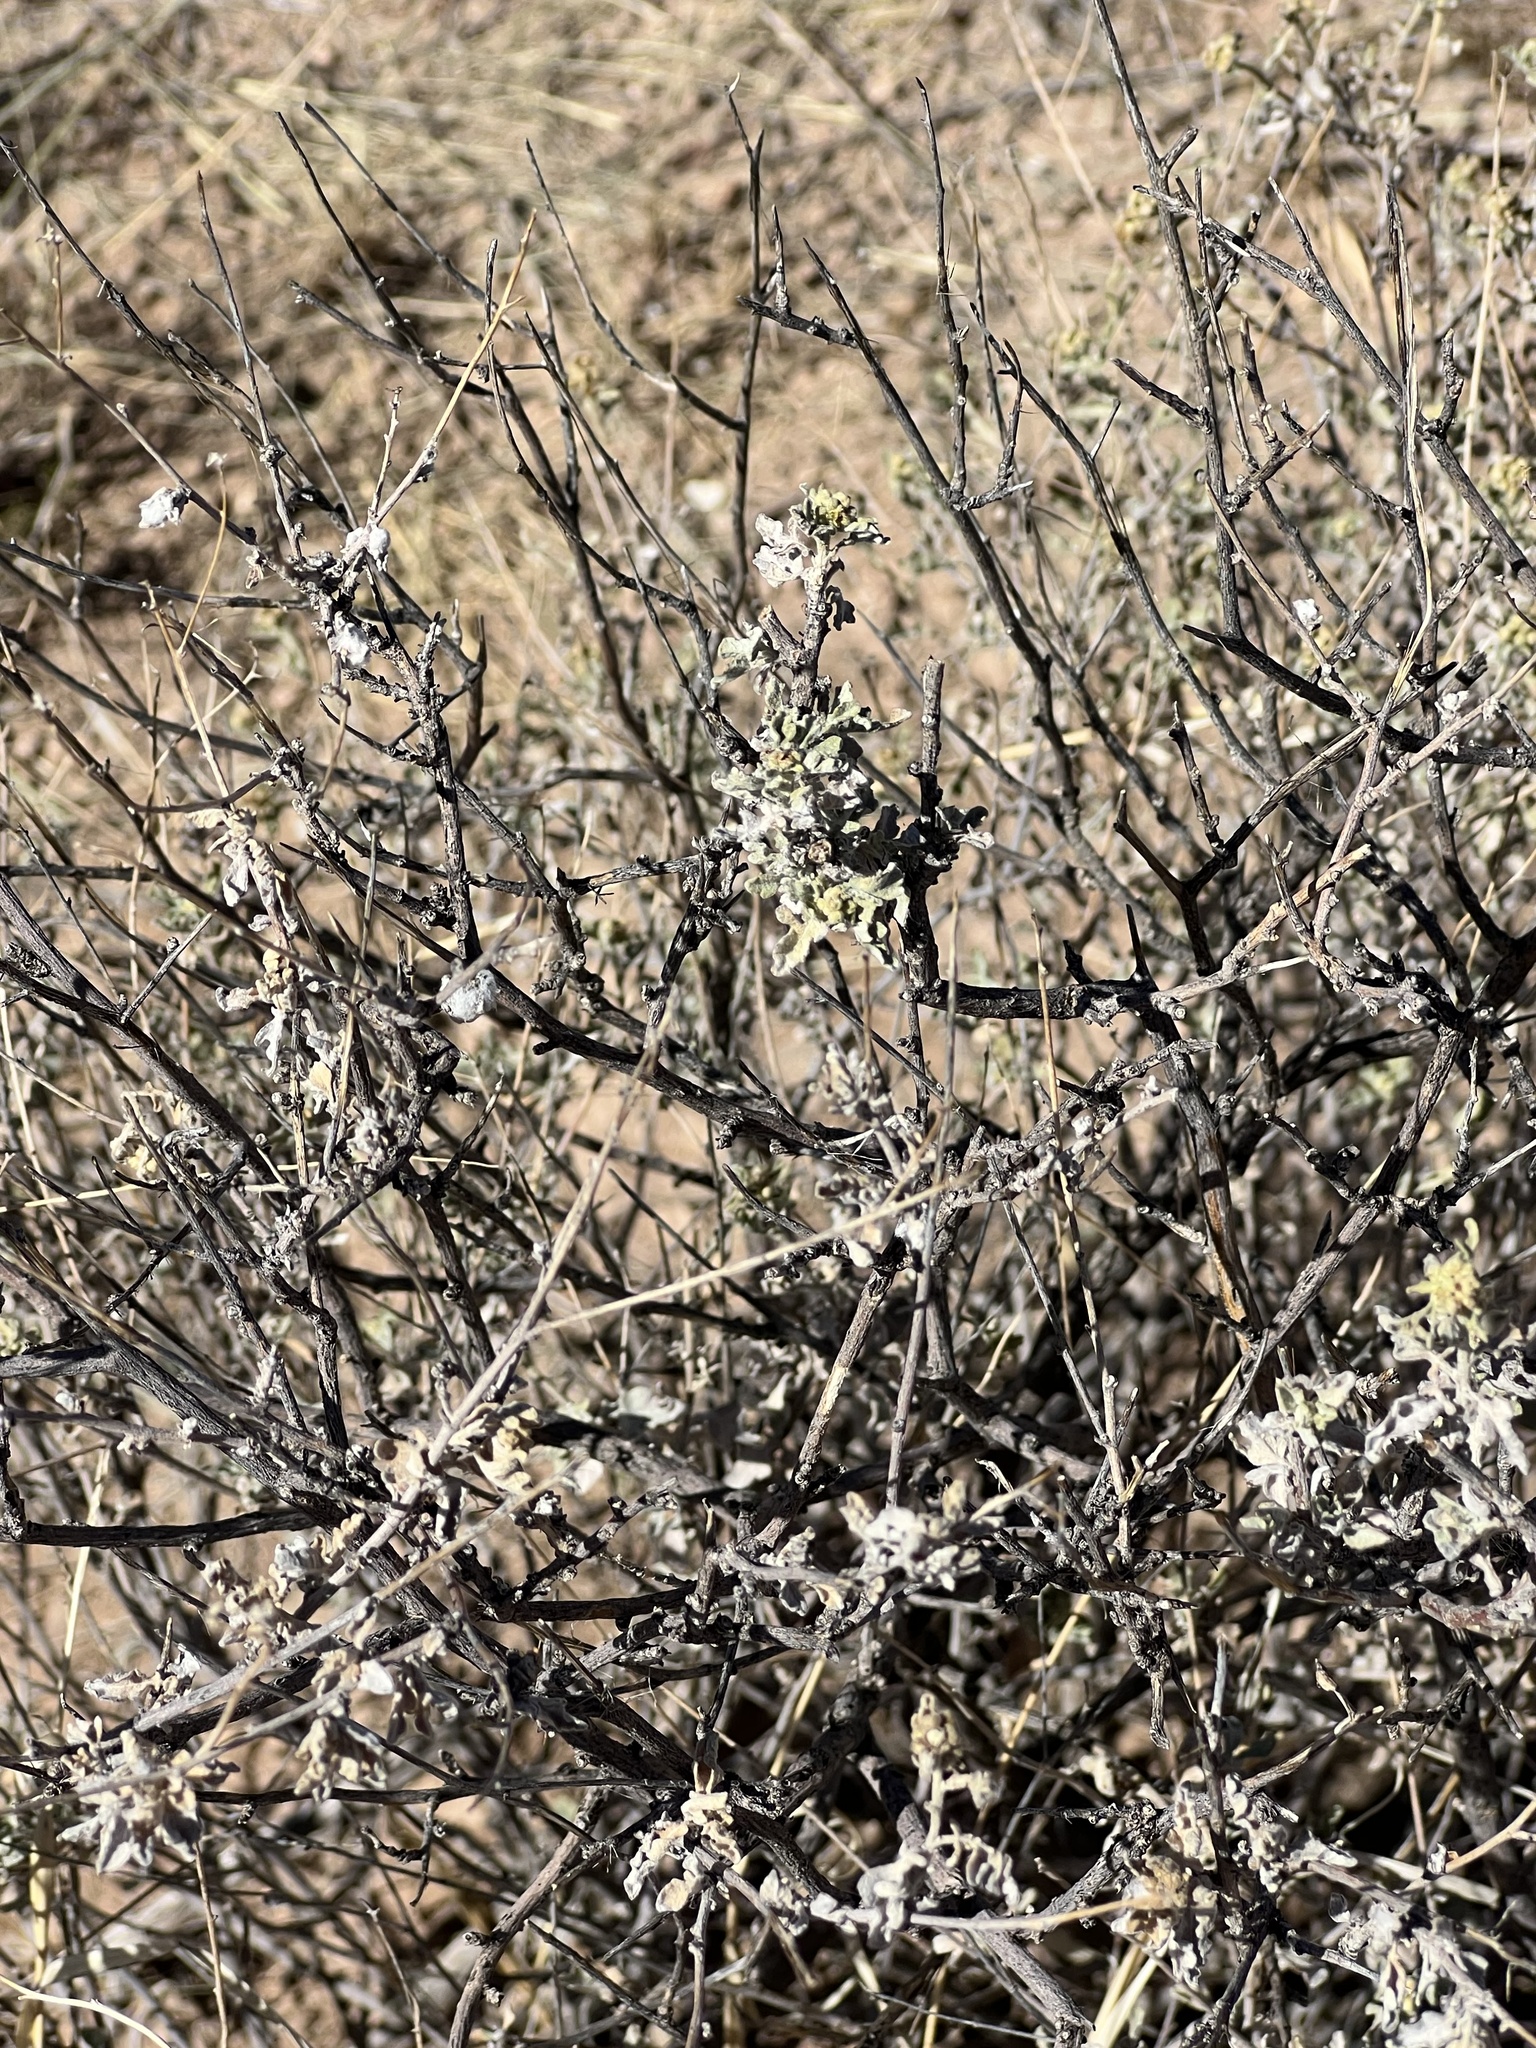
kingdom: Plantae
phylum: Tracheophyta
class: Magnoliopsida
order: Asterales
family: Asteraceae
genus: Parthenium
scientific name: Parthenium incanum
